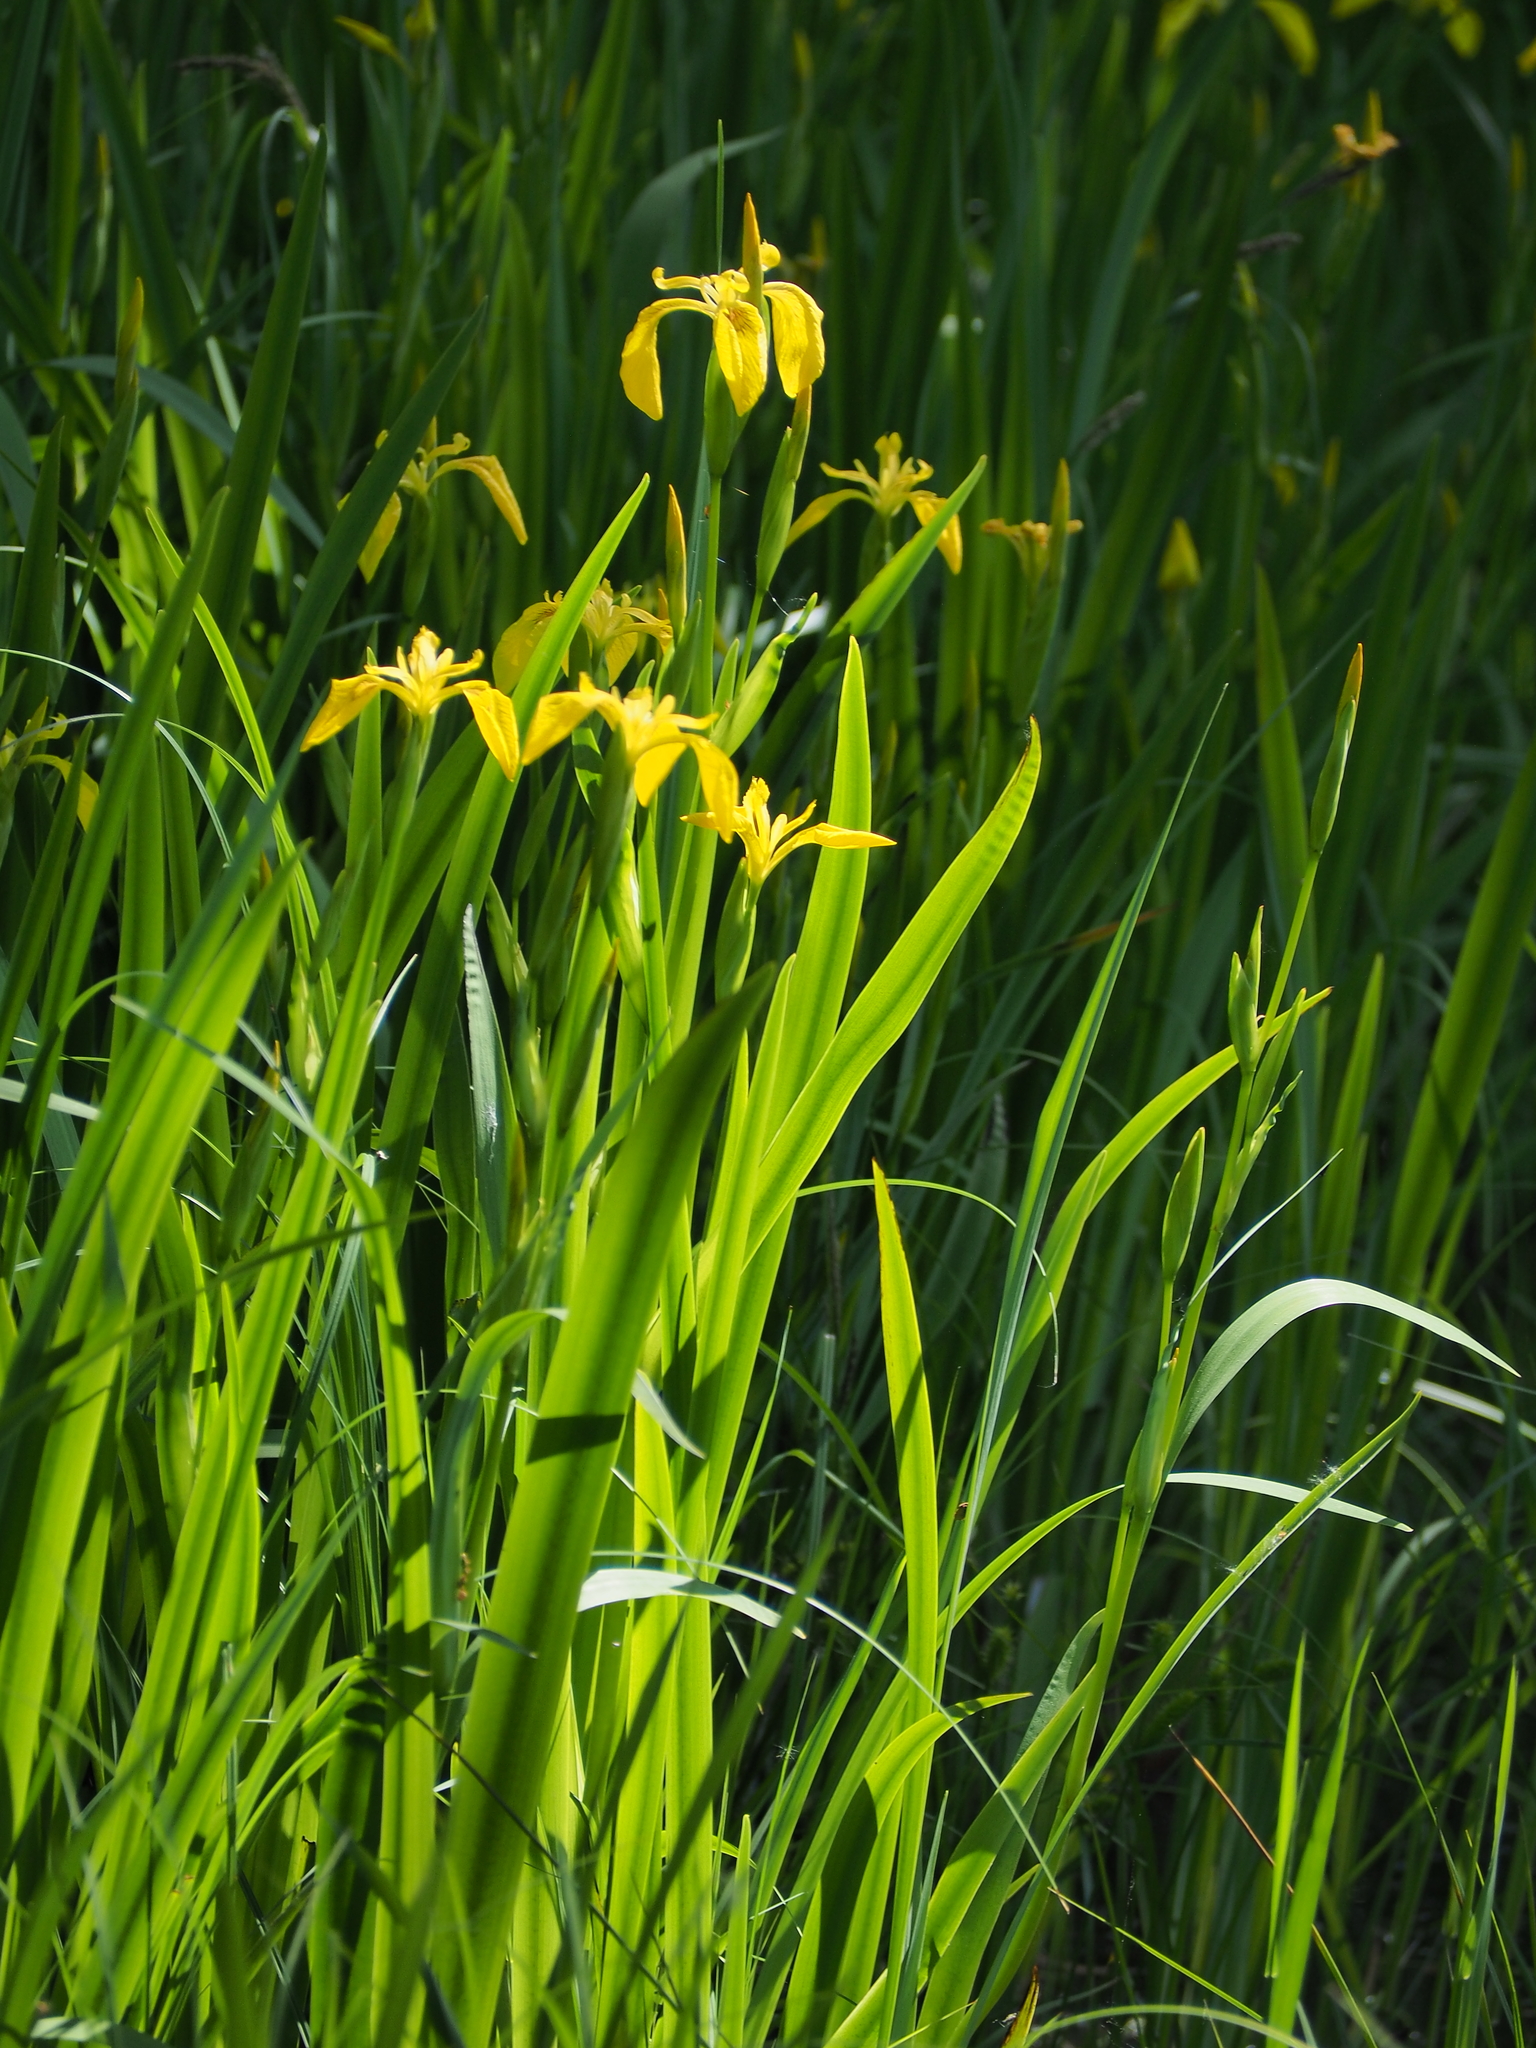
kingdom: Plantae
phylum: Tracheophyta
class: Liliopsida
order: Asparagales
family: Iridaceae
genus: Iris
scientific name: Iris pseudacorus
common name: Yellow flag
